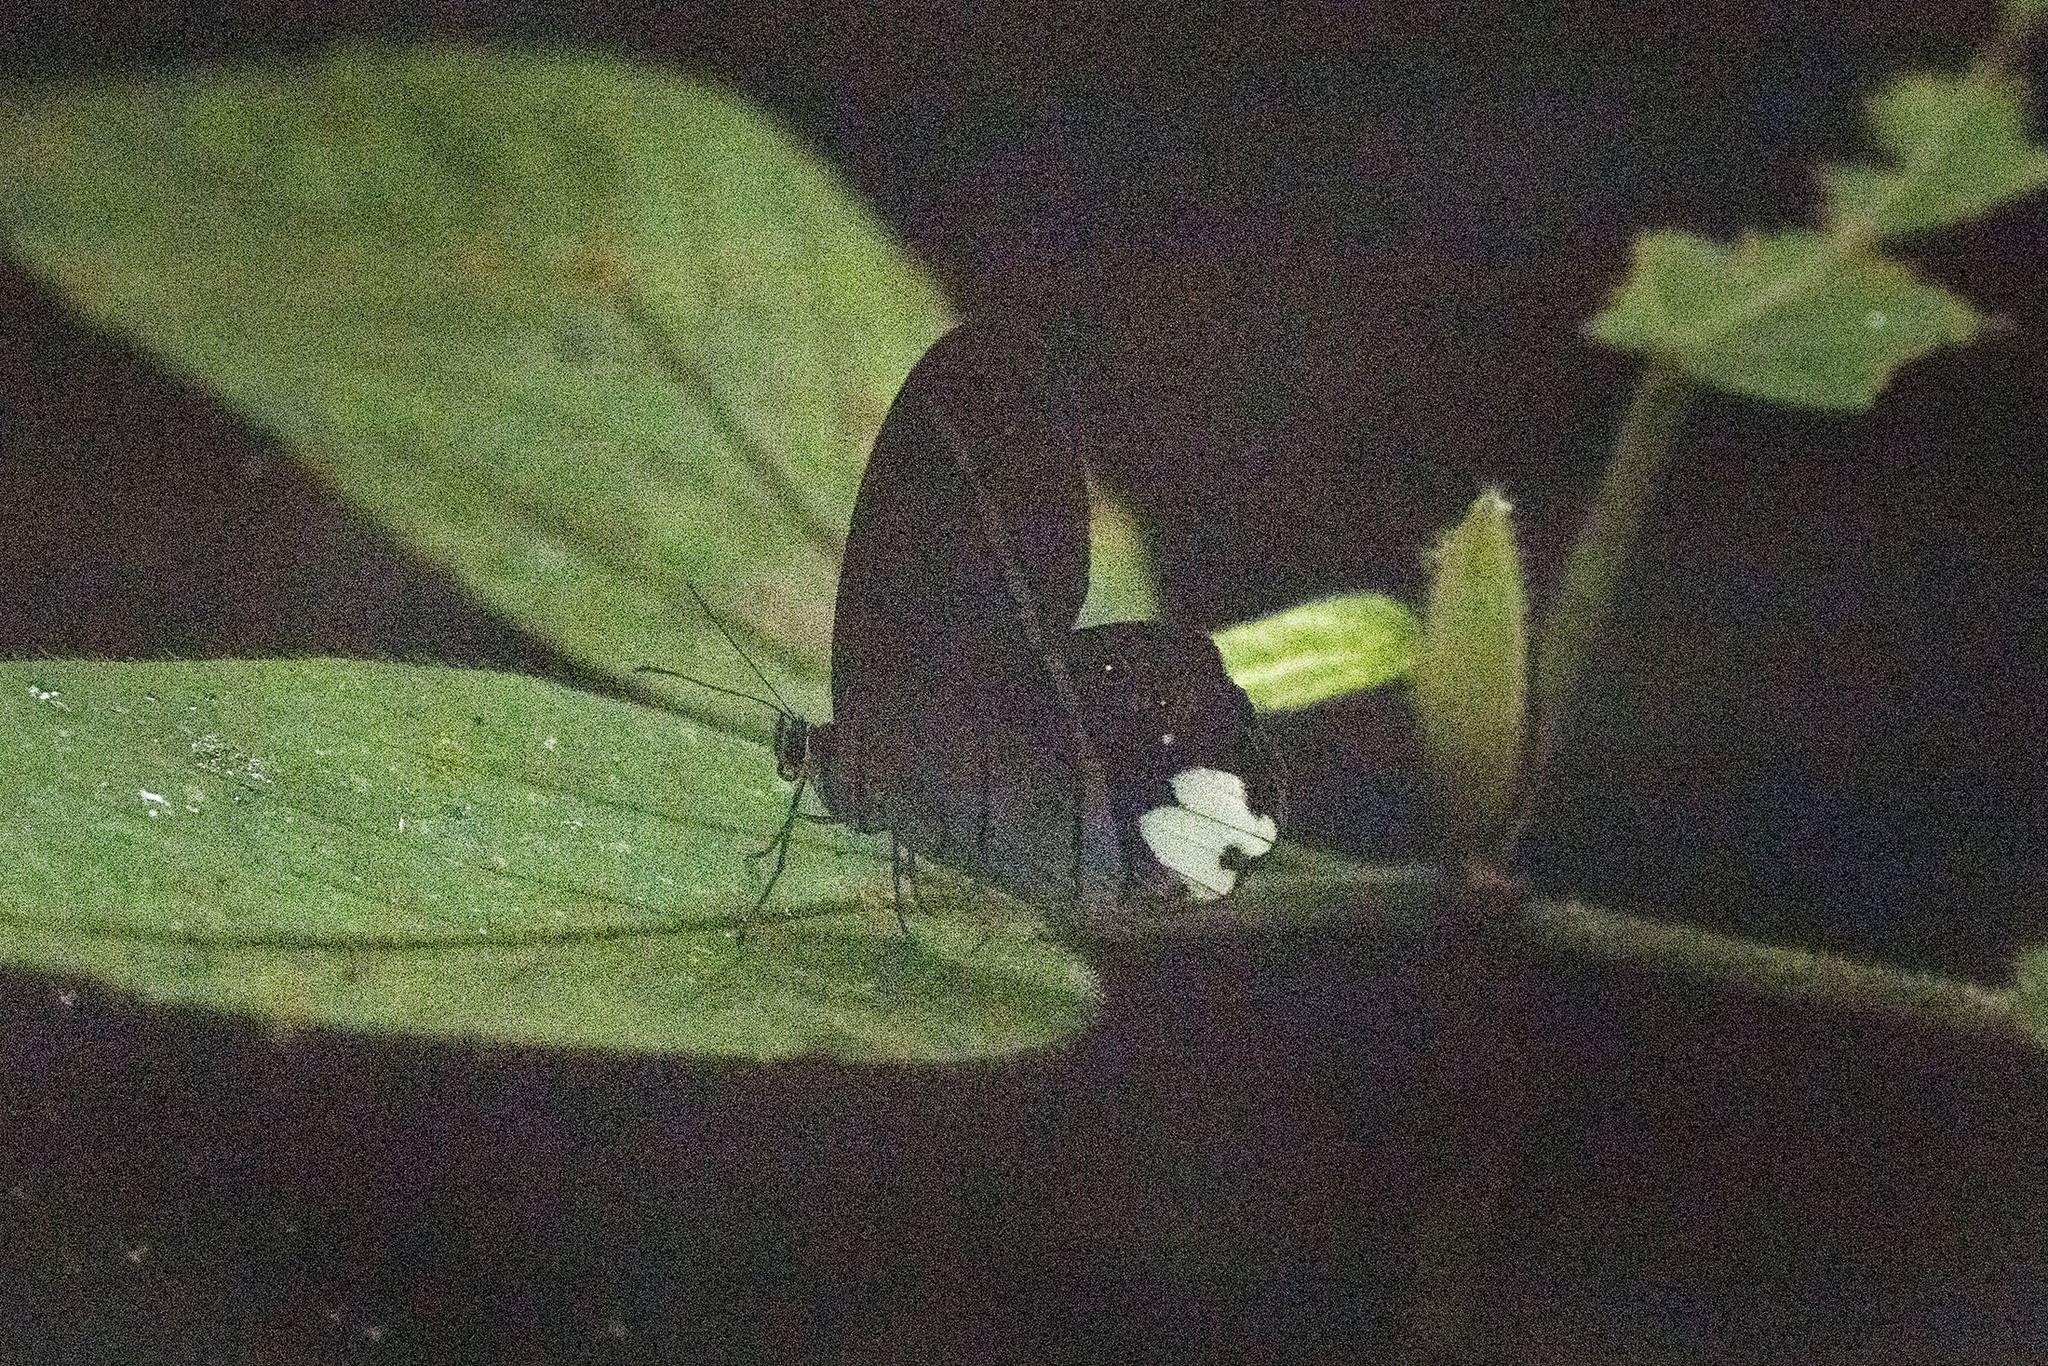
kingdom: Animalia
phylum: Arthropoda
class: Insecta
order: Lepidoptera
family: Nymphalidae
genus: Pierella
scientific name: Pierella astyoche
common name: Astyoche satyr
